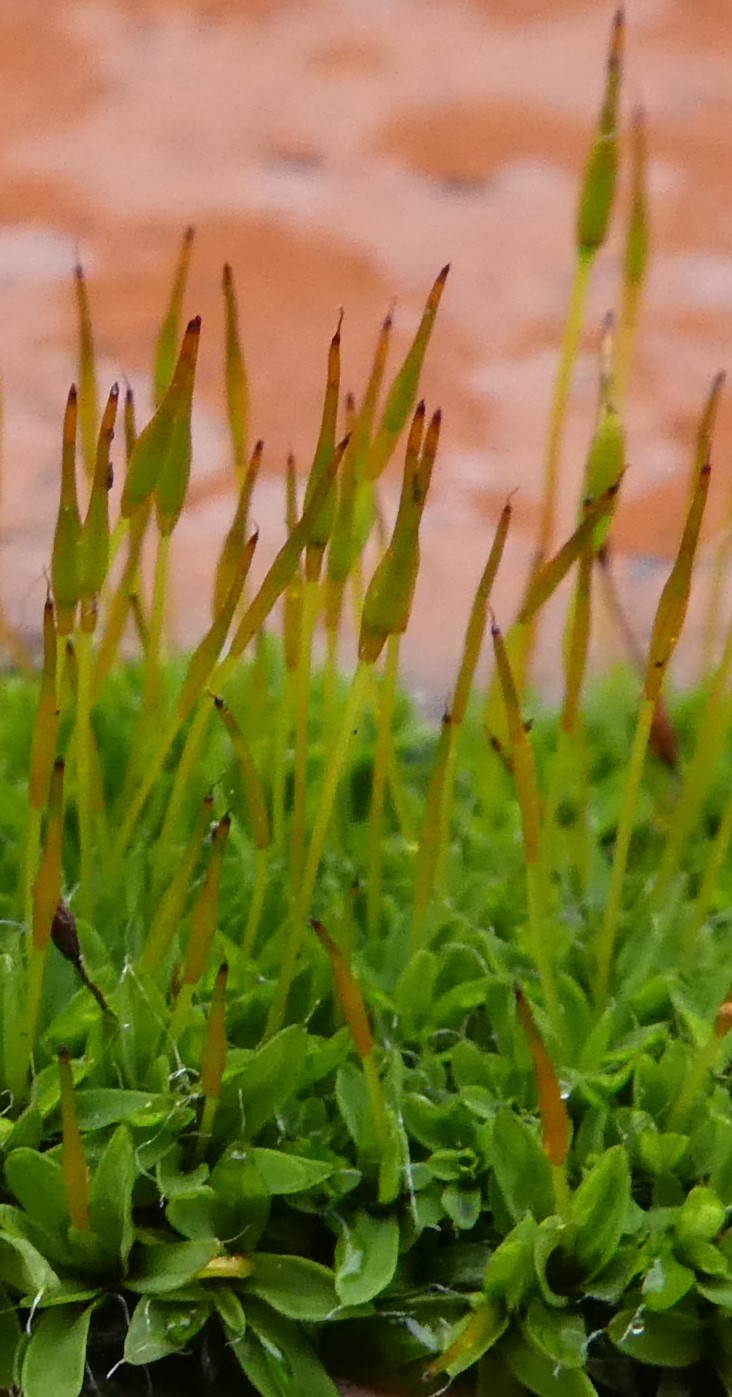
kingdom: Plantae
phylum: Bryophyta
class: Bryopsida
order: Pottiales
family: Pottiaceae
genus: Tortula
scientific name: Tortula muralis
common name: Wall screw-moss
